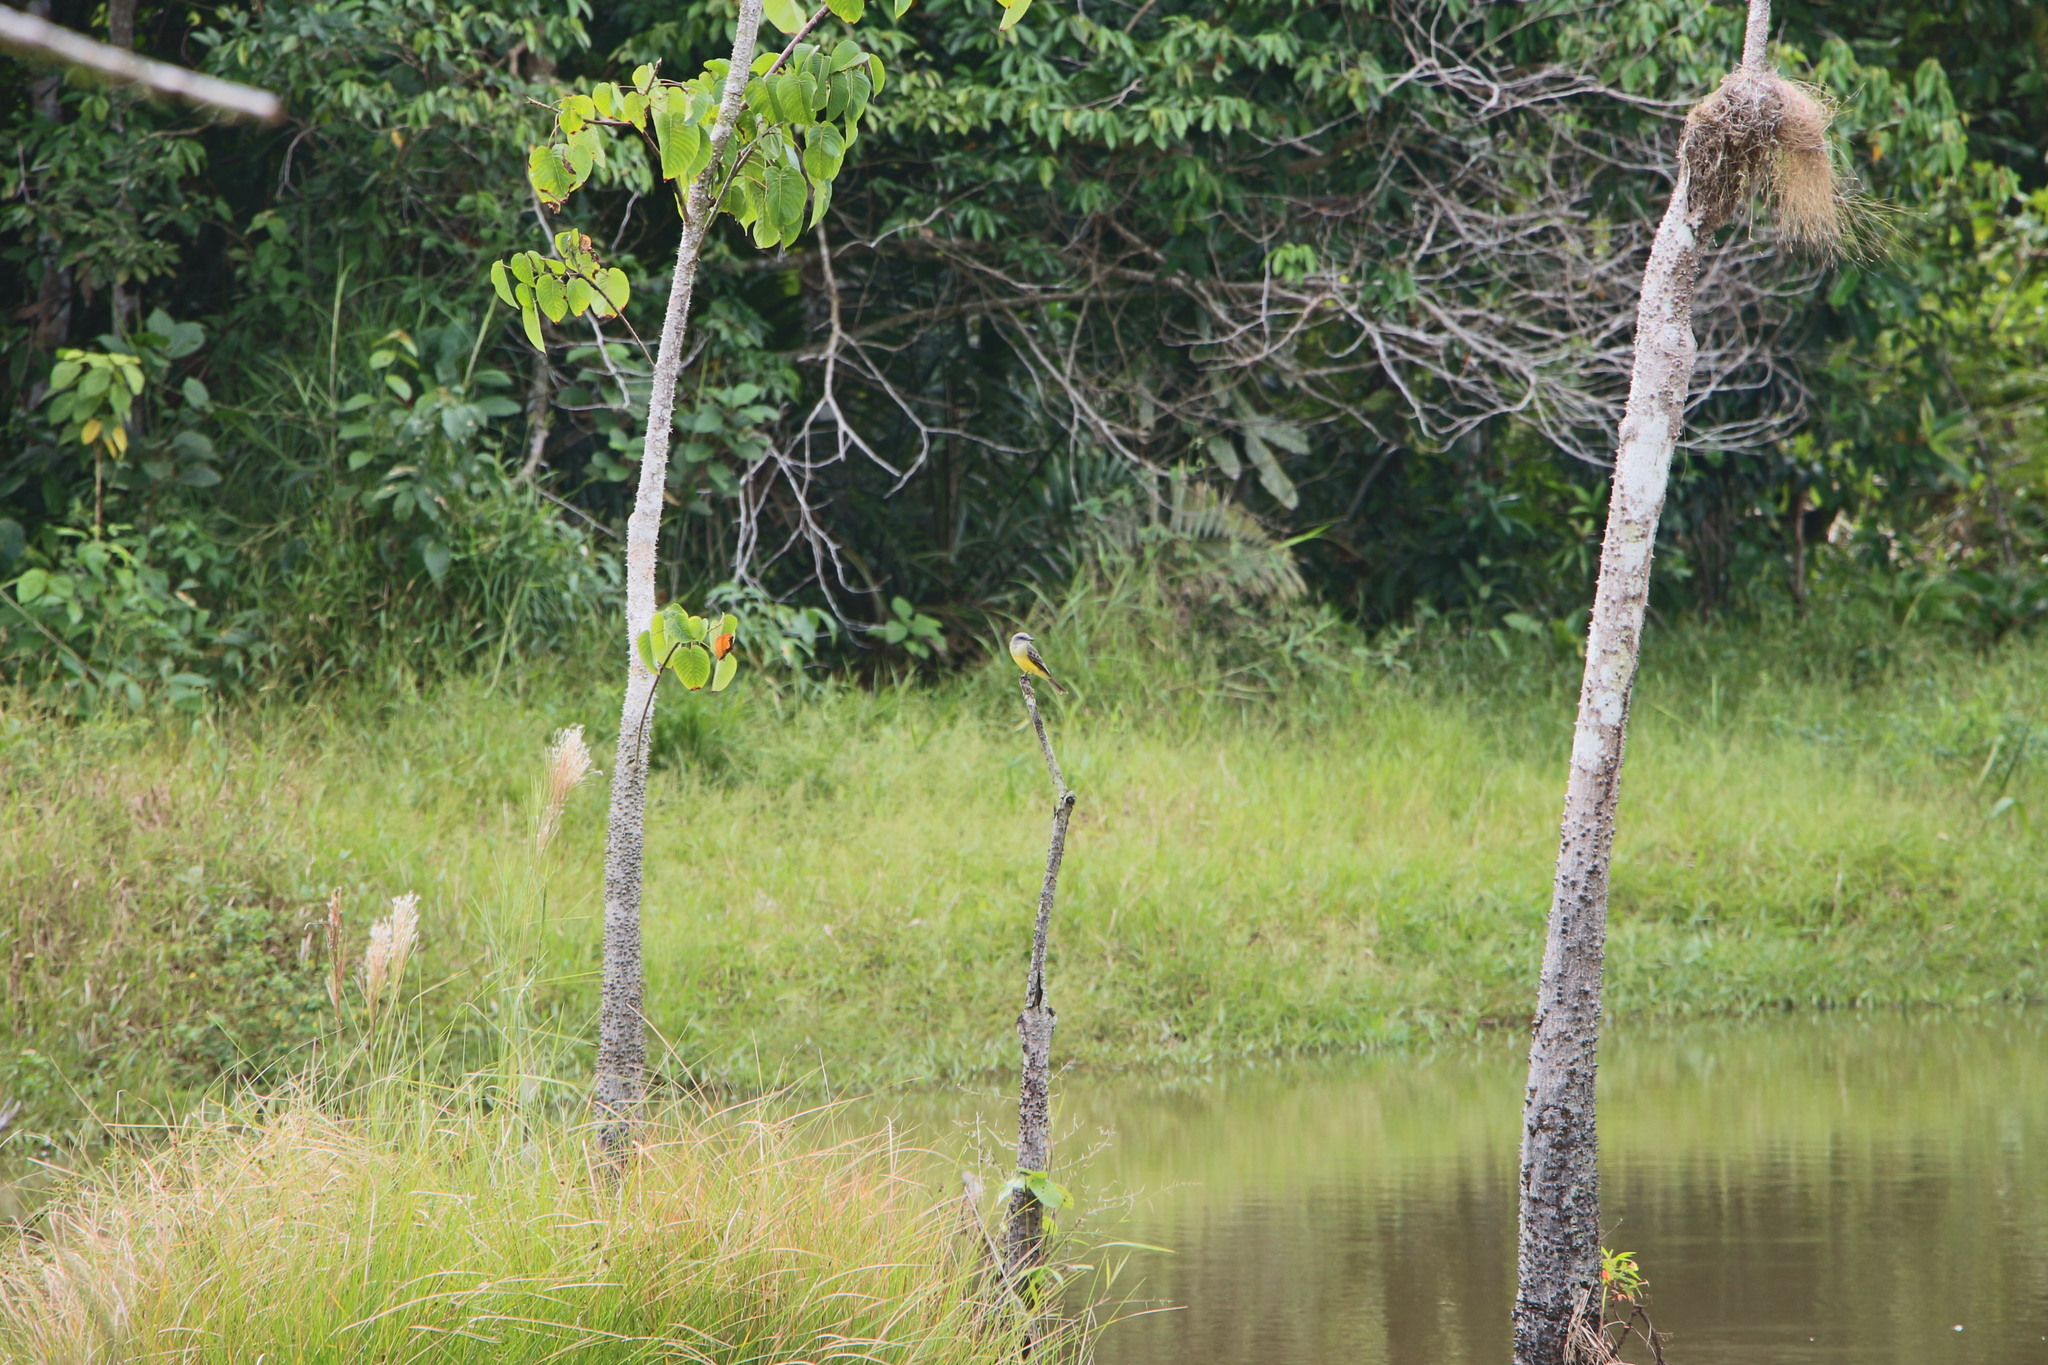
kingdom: Animalia
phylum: Chordata
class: Aves
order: Passeriformes
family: Tyrannidae
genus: Tyrannus
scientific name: Tyrannus melancholicus
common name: Tropical kingbird
